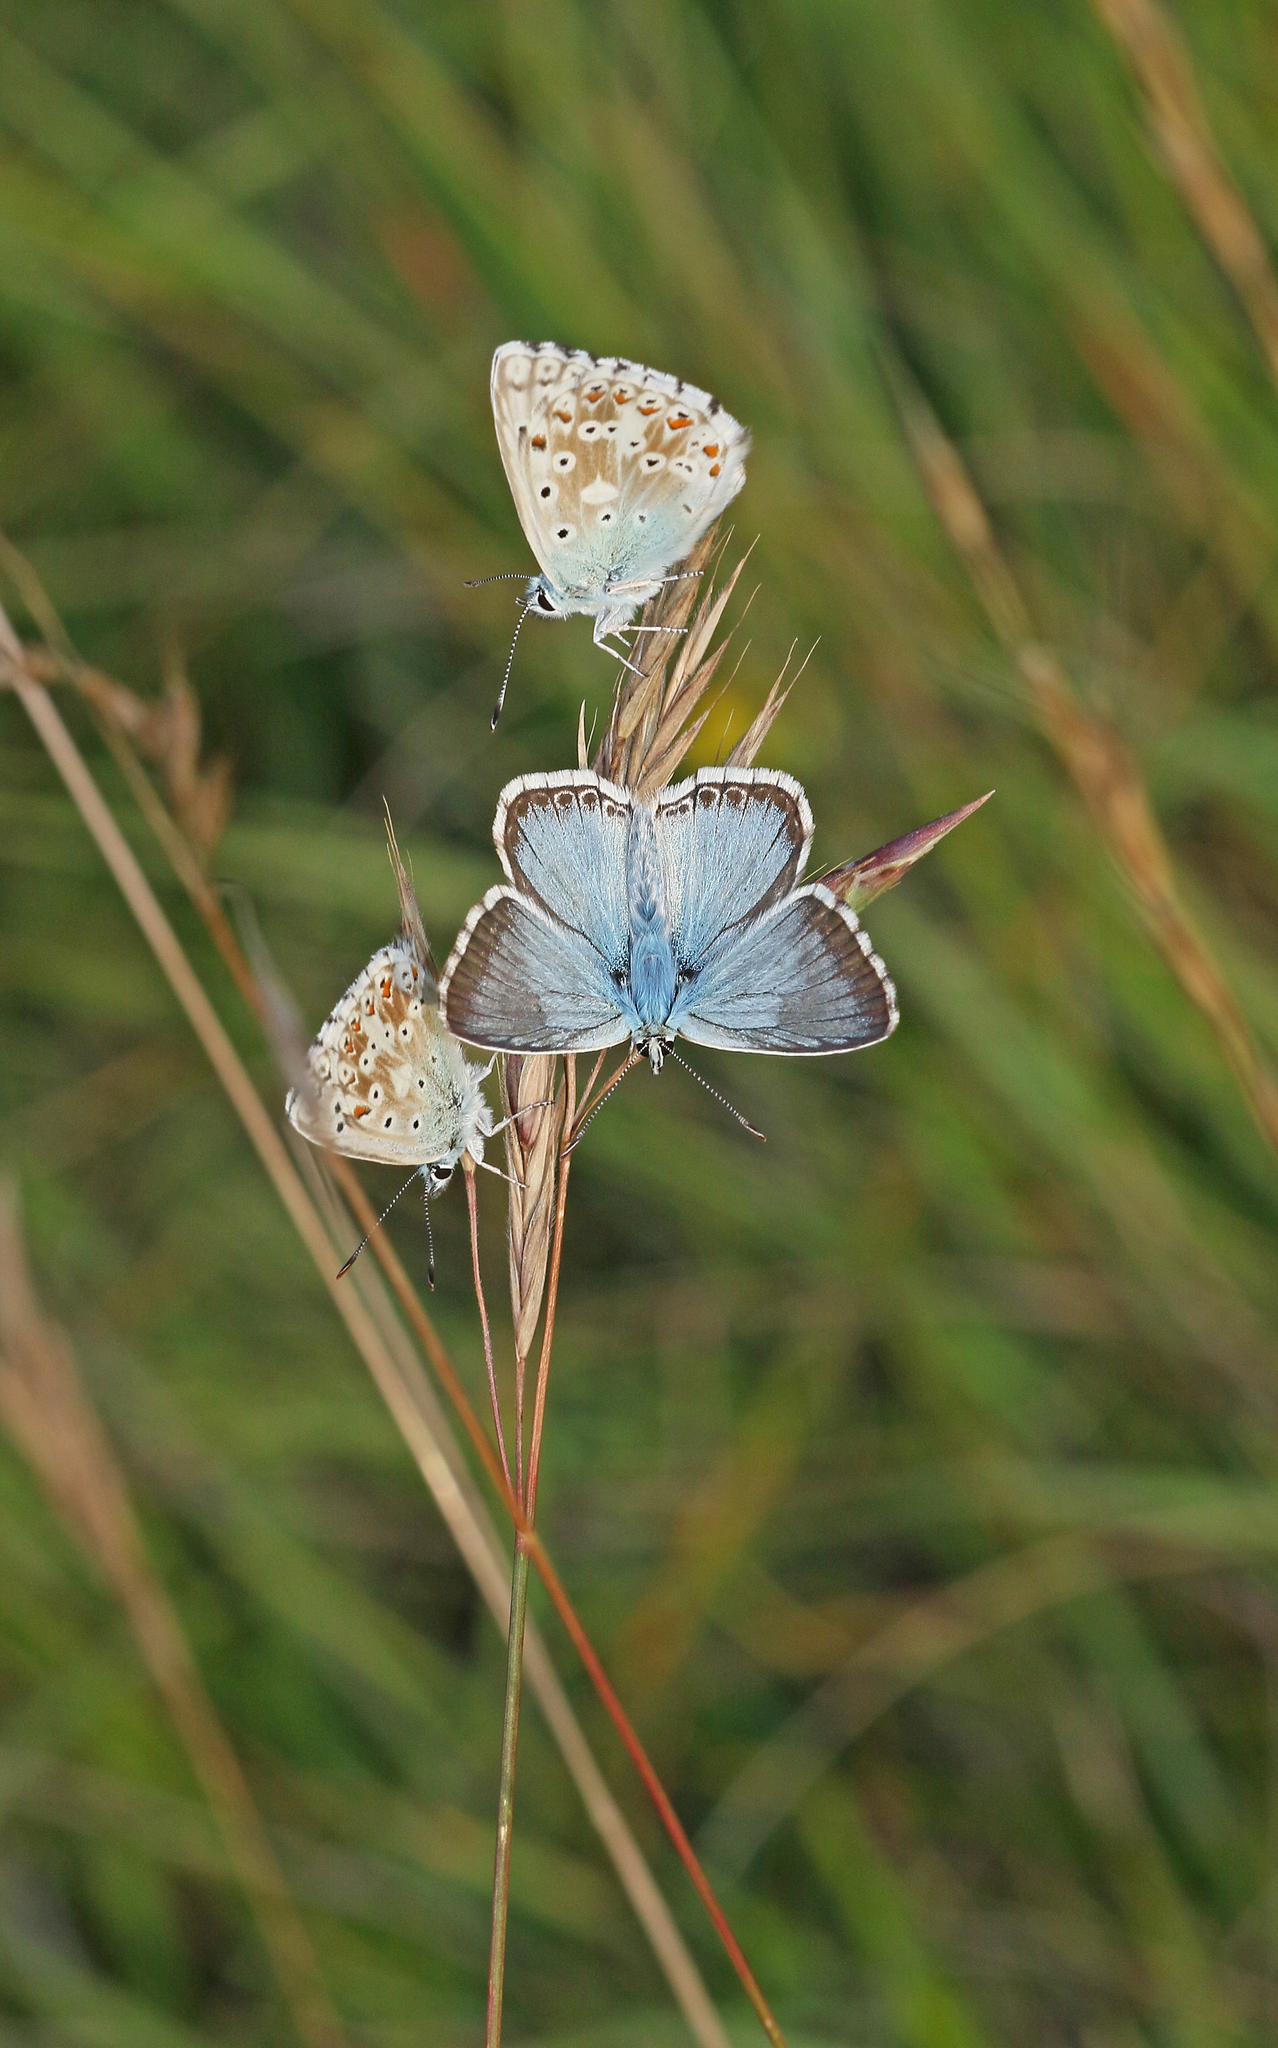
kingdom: Animalia
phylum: Arthropoda
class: Insecta
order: Lepidoptera
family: Lycaenidae
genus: Lysandra
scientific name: Lysandra coridon
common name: Chalkhill blue
